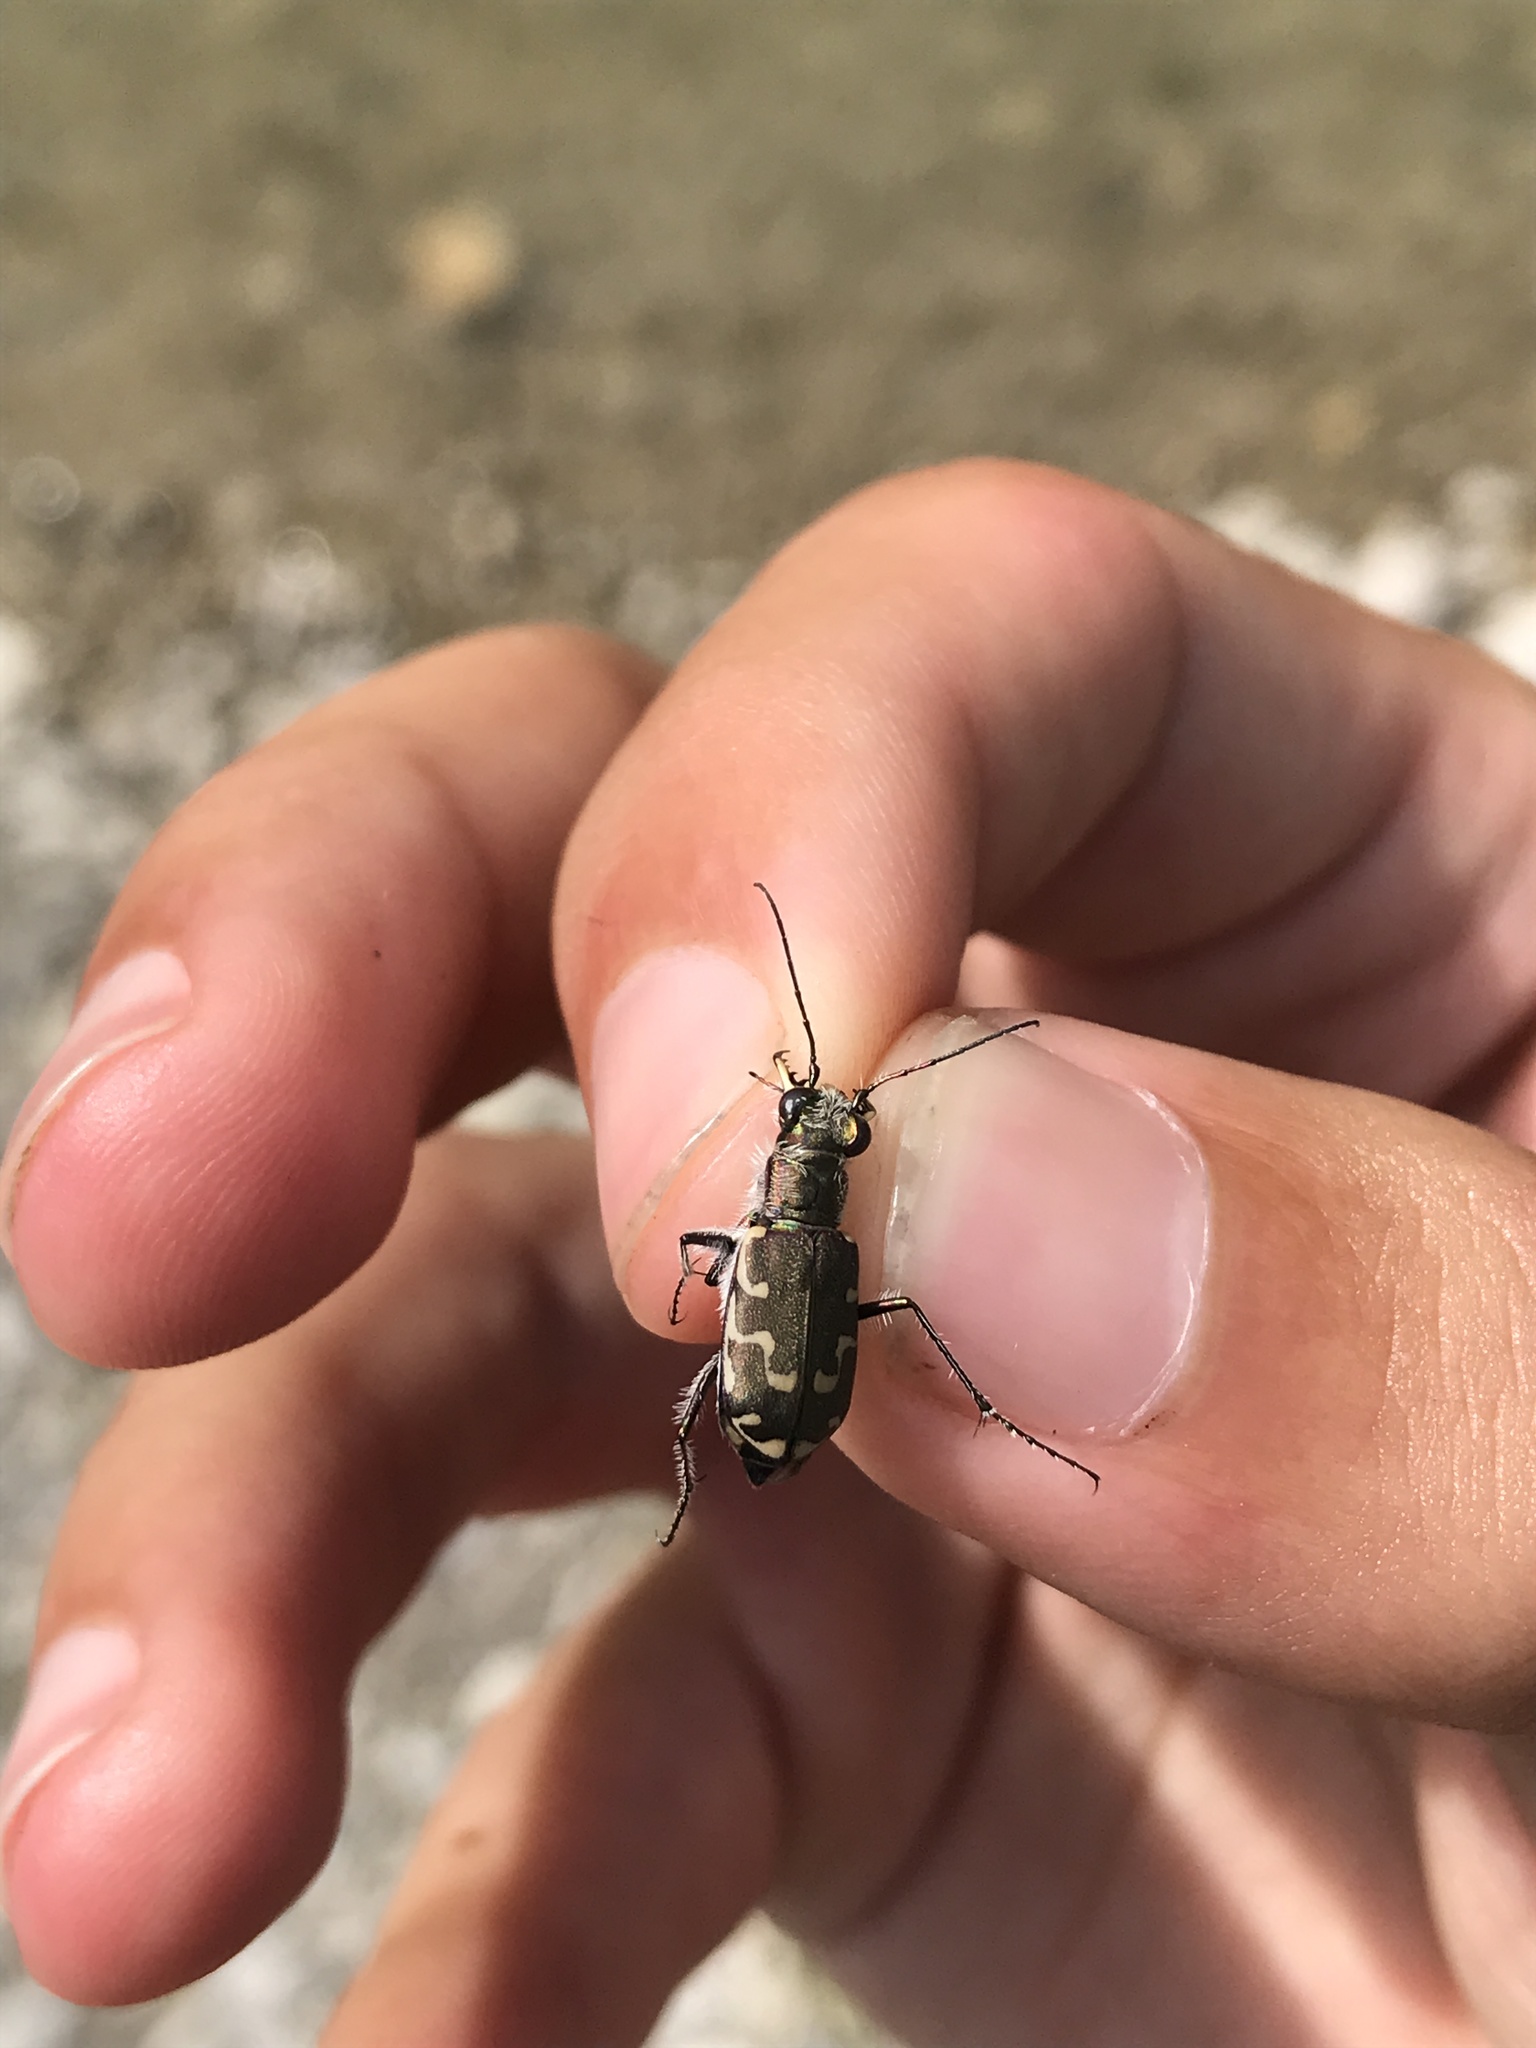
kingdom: Animalia
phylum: Arthropoda
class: Insecta
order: Coleoptera
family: Carabidae
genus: Cicindela
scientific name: Cicindela repanda
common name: Bronzed tiger beetle
